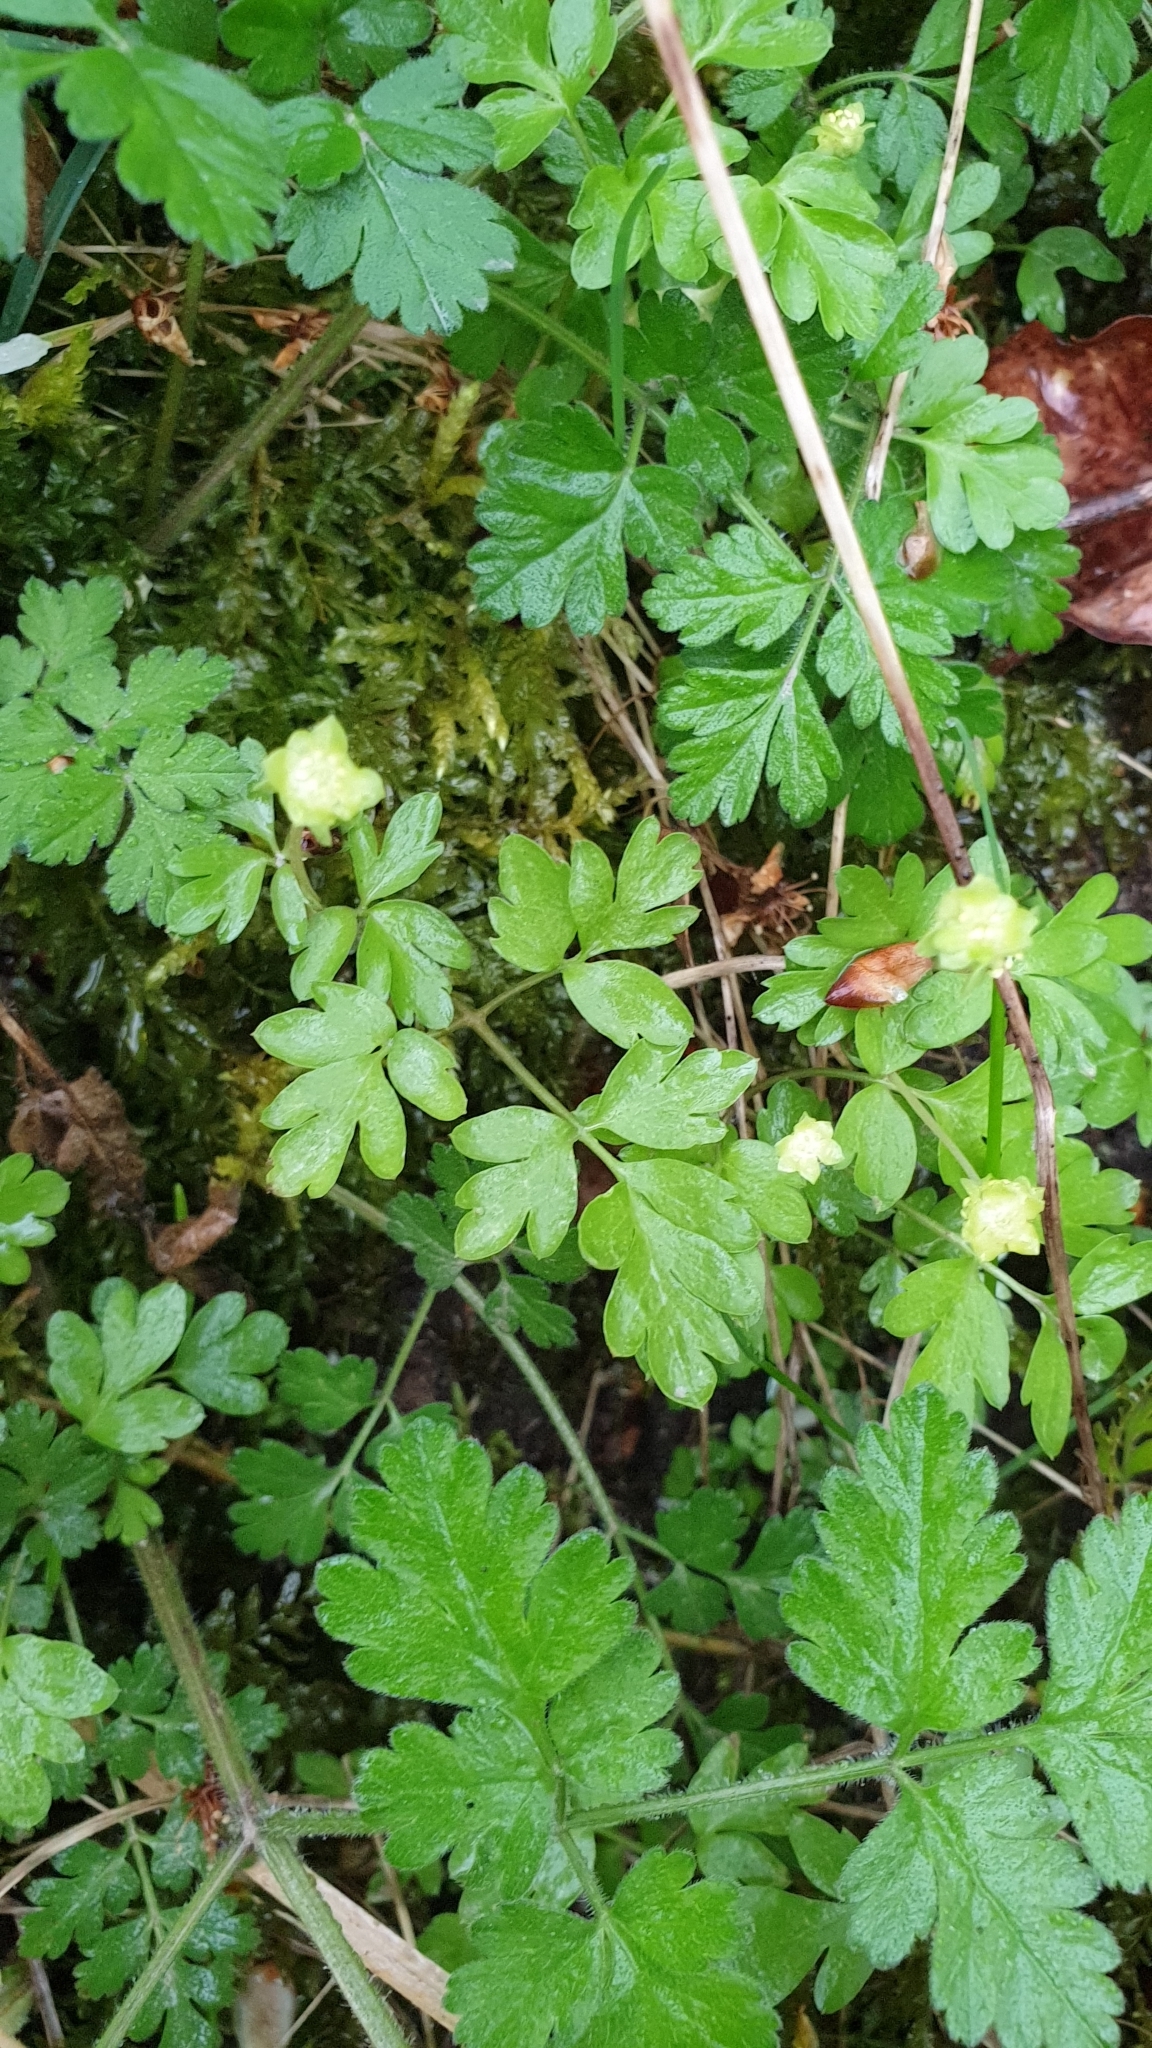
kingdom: Plantae
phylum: Tracheophyta
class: Magnoliopsida
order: Dipsacales
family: Viburnaceae
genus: Adoxa
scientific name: Adoxa moschatellina
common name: Moschatel
